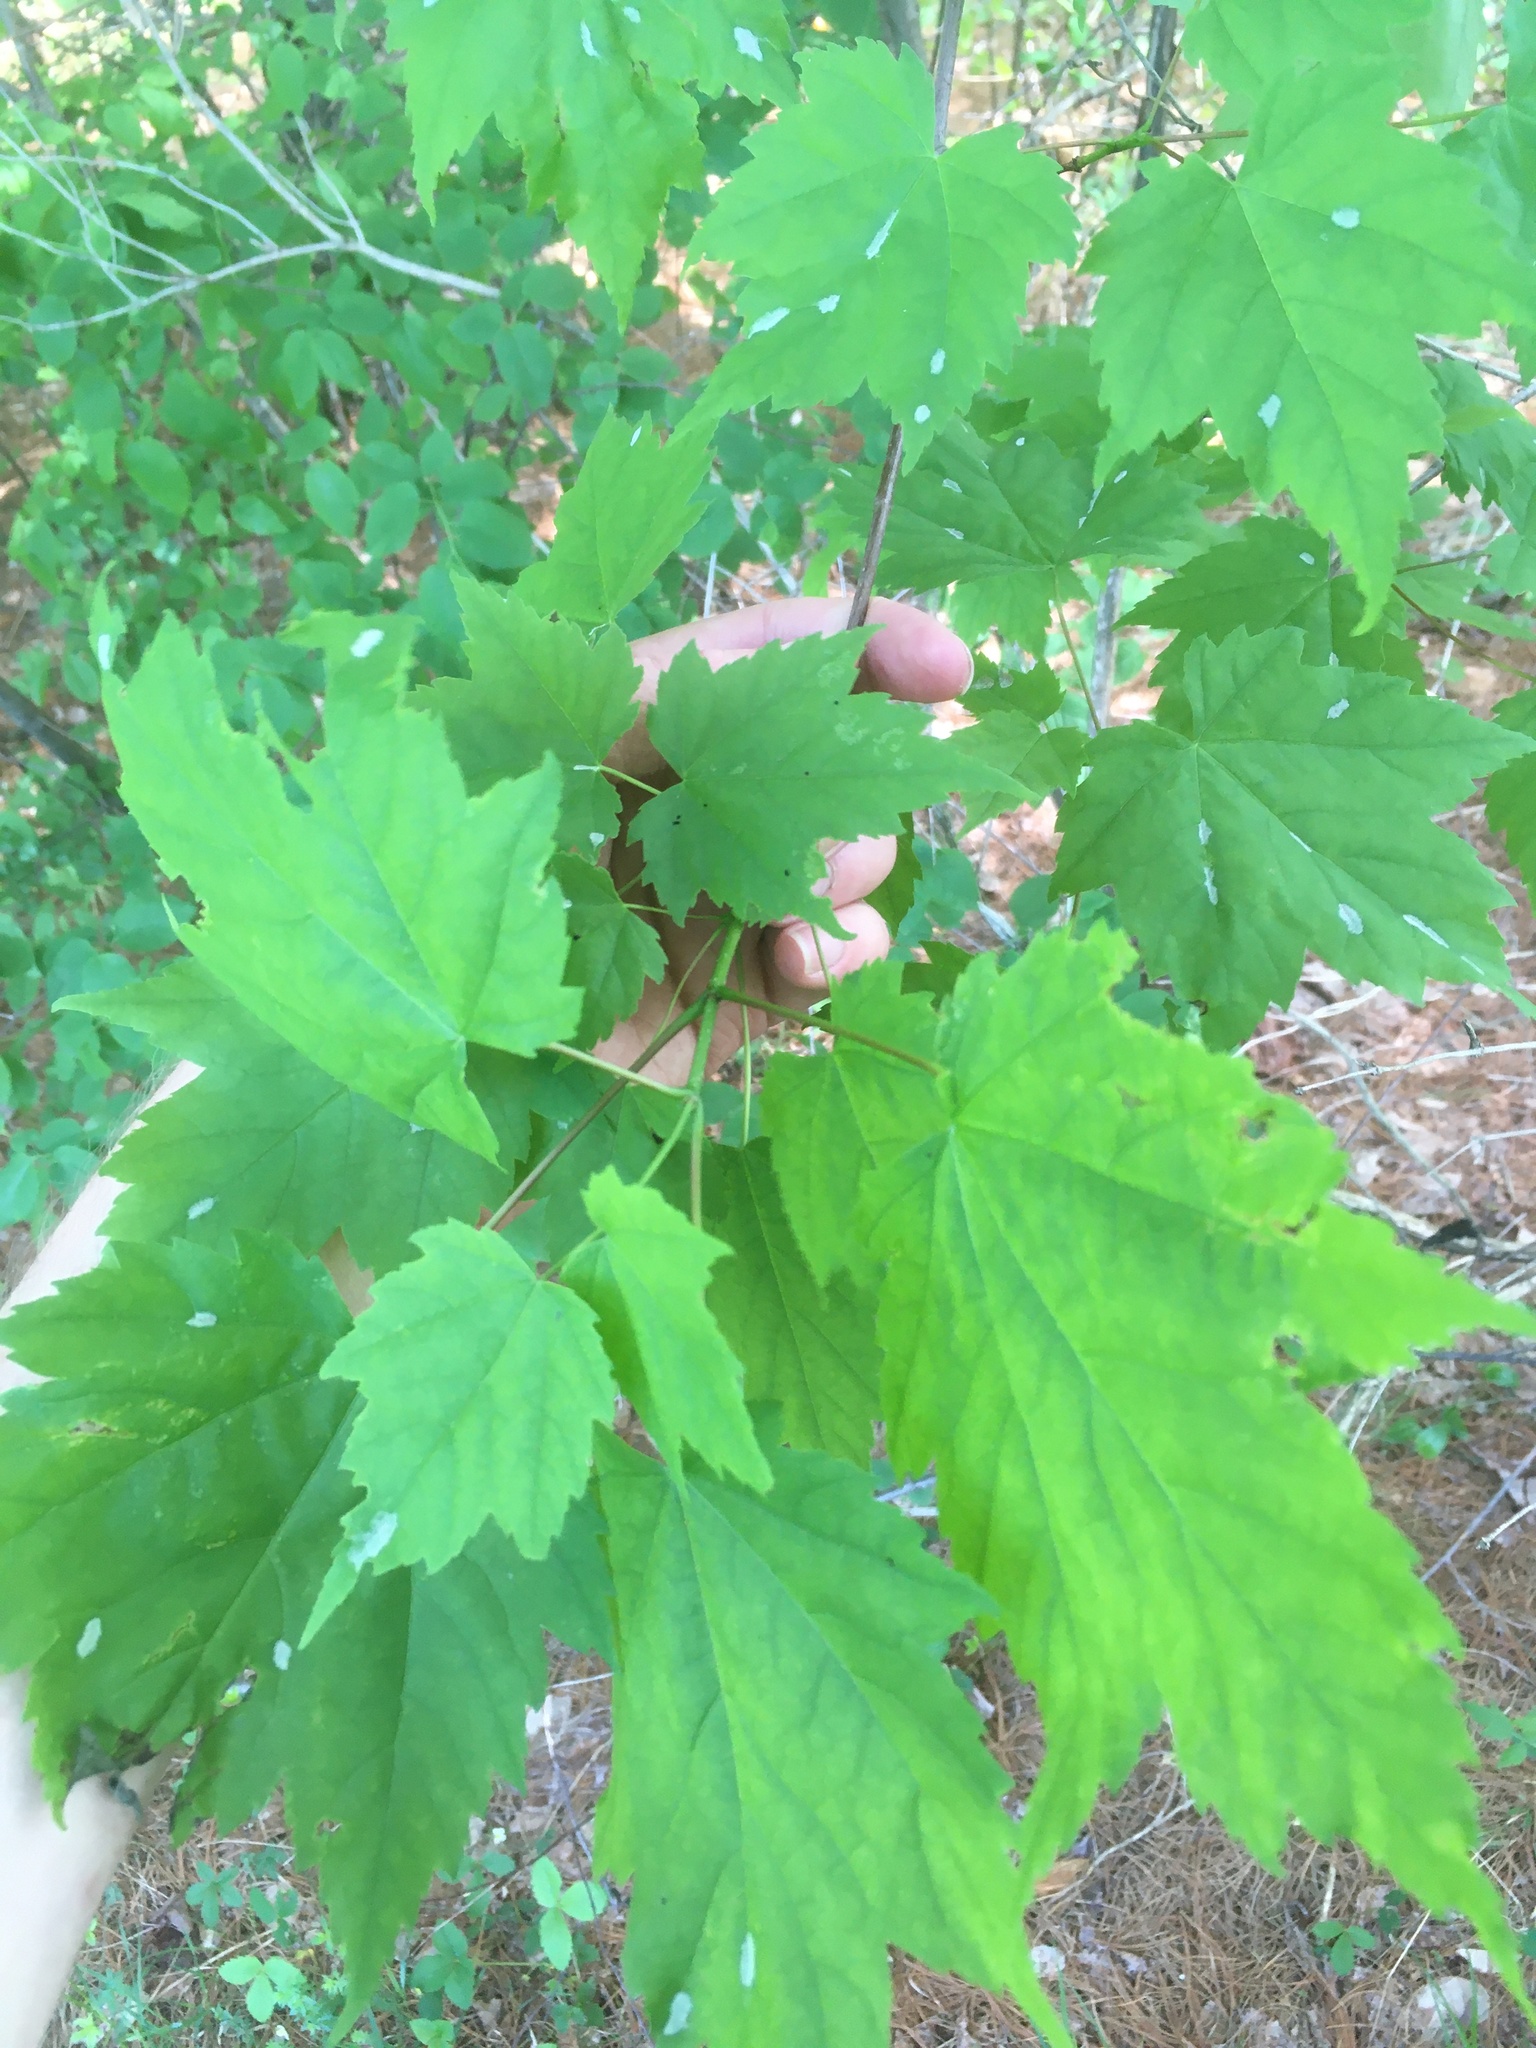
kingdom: Plantae
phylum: Tracheophyta
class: Magnoliopsida
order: Sapindales
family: Sapindaceae
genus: Acer
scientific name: Acer rubrum
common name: Red maple
